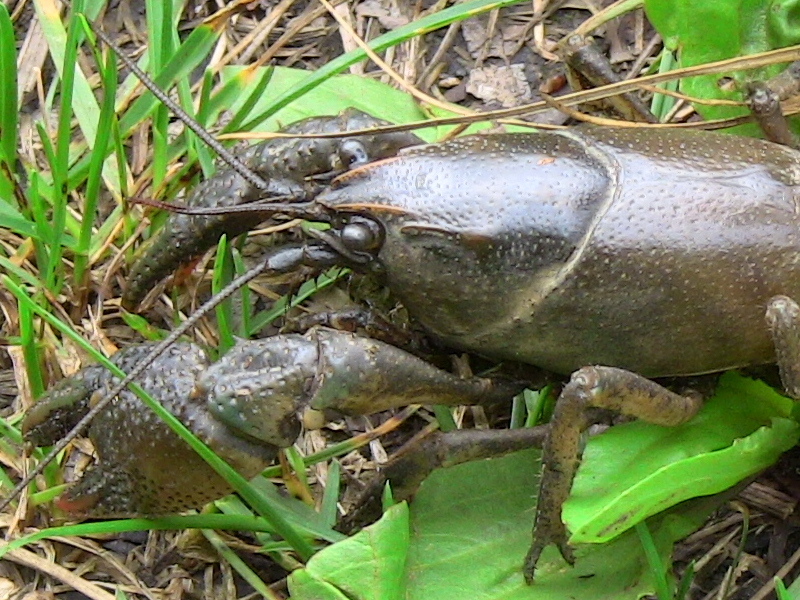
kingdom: Animalia
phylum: Arthropoda
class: Malacostraca
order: Decapoda
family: Cambaridae
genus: Lacunicambarus
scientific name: Lacunicambarus thomai
